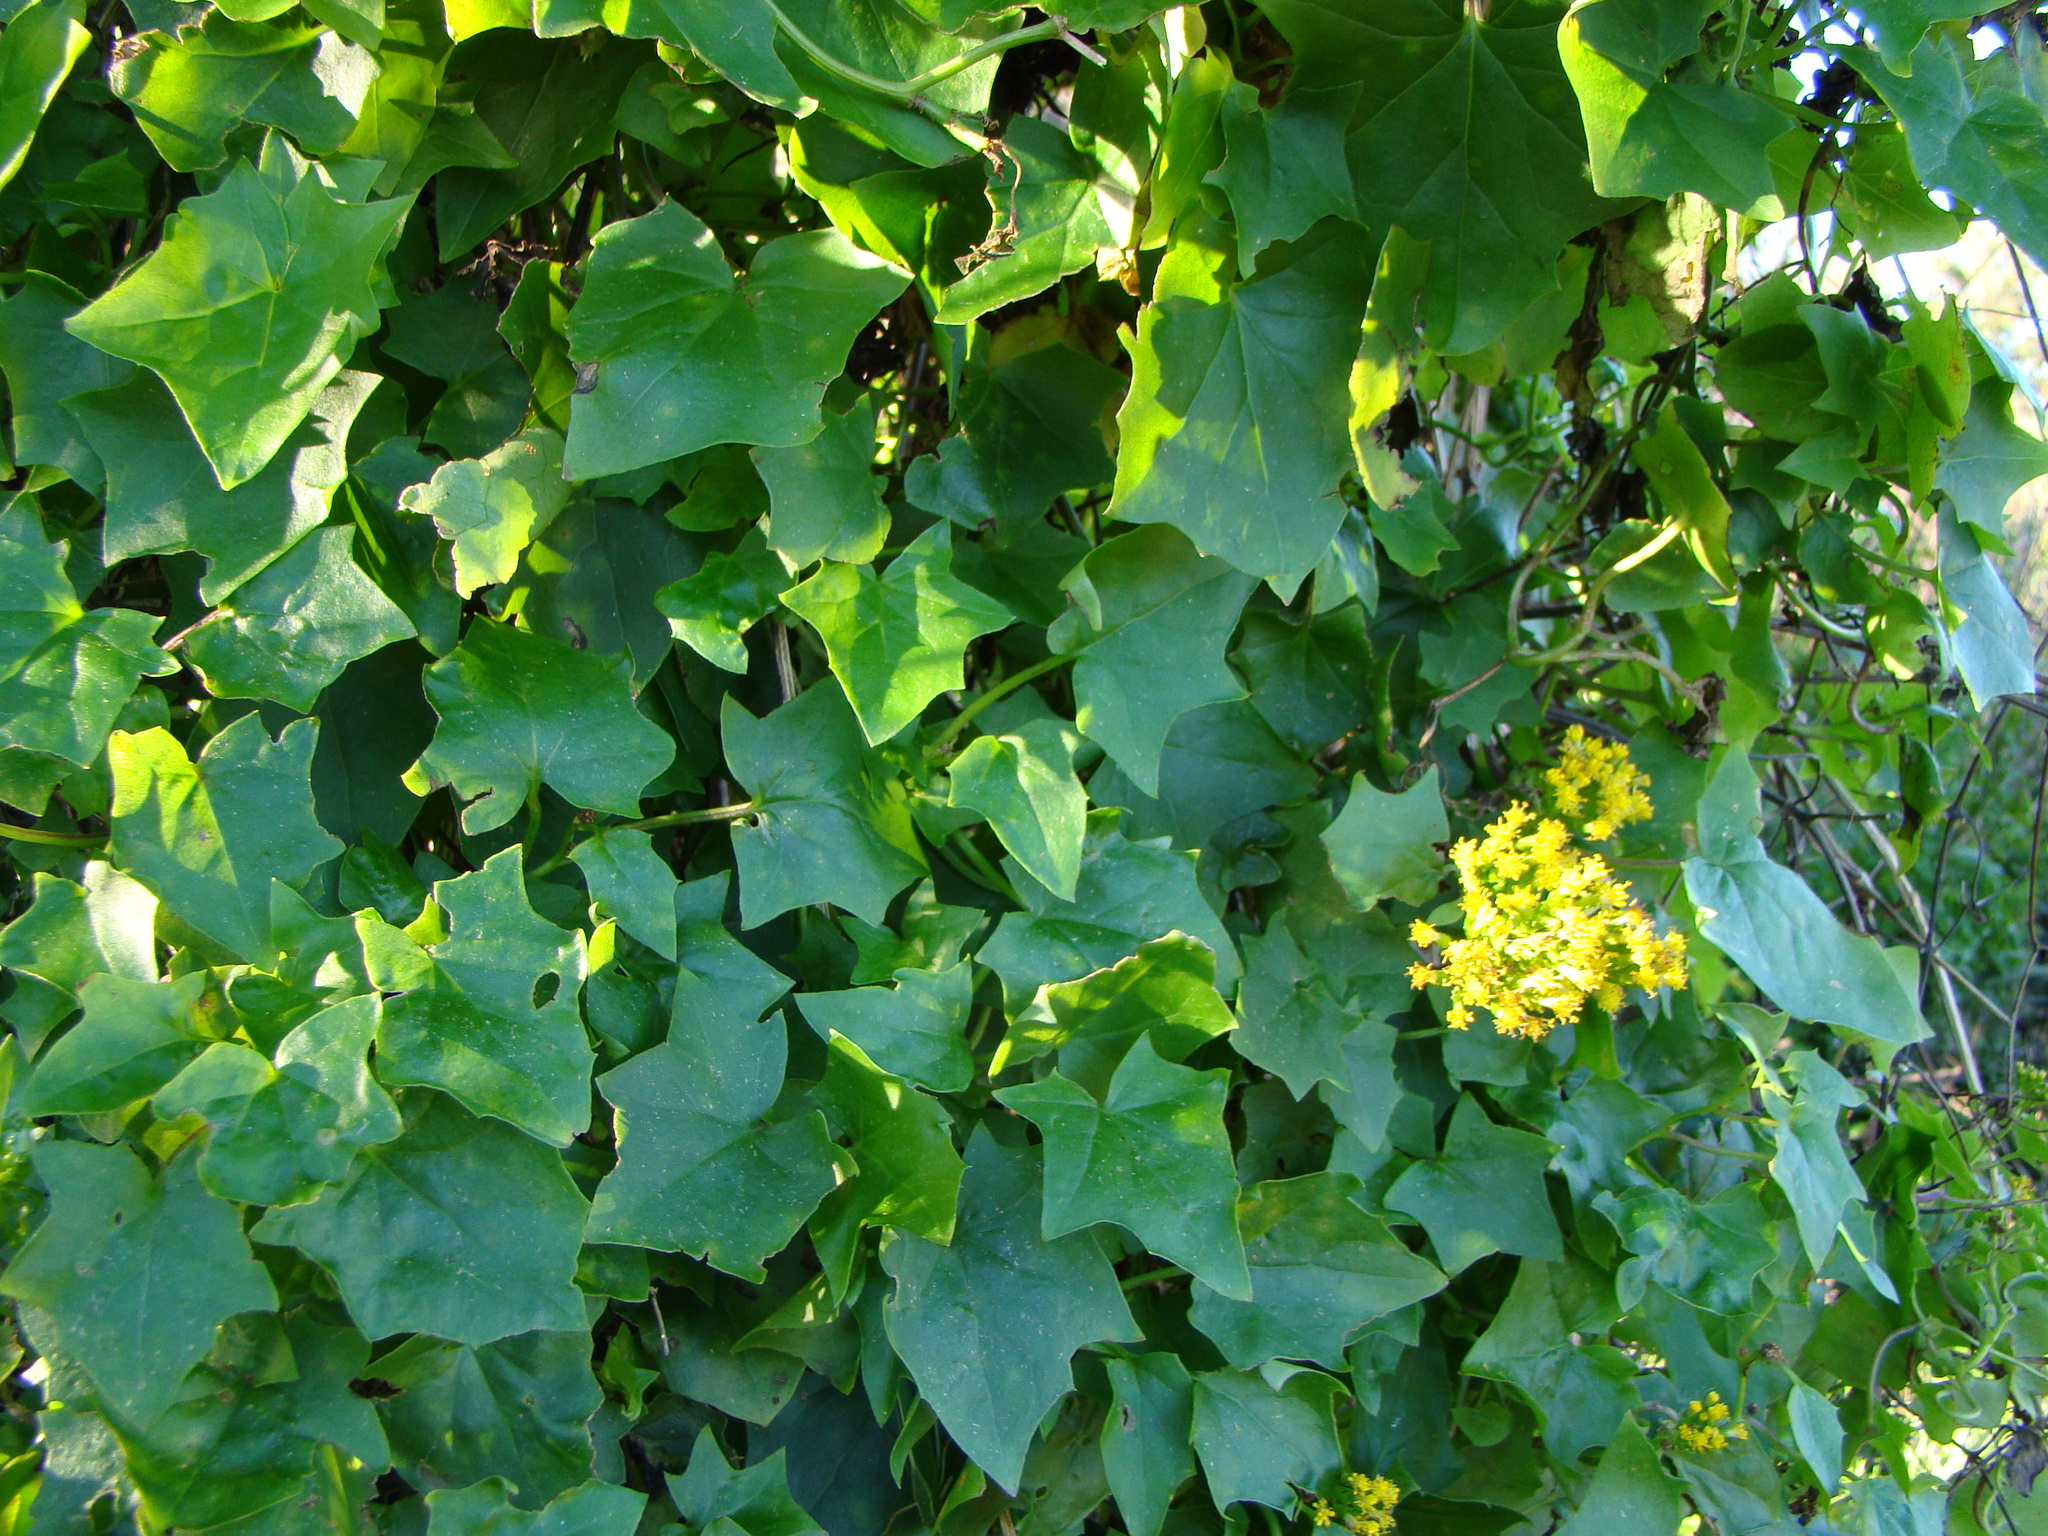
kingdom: Plantae
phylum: Tracheophyta
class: Magnoliopsida
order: Asterales
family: Asteraceae
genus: Delairea
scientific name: Delairea odorata
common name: Cape-ivy
